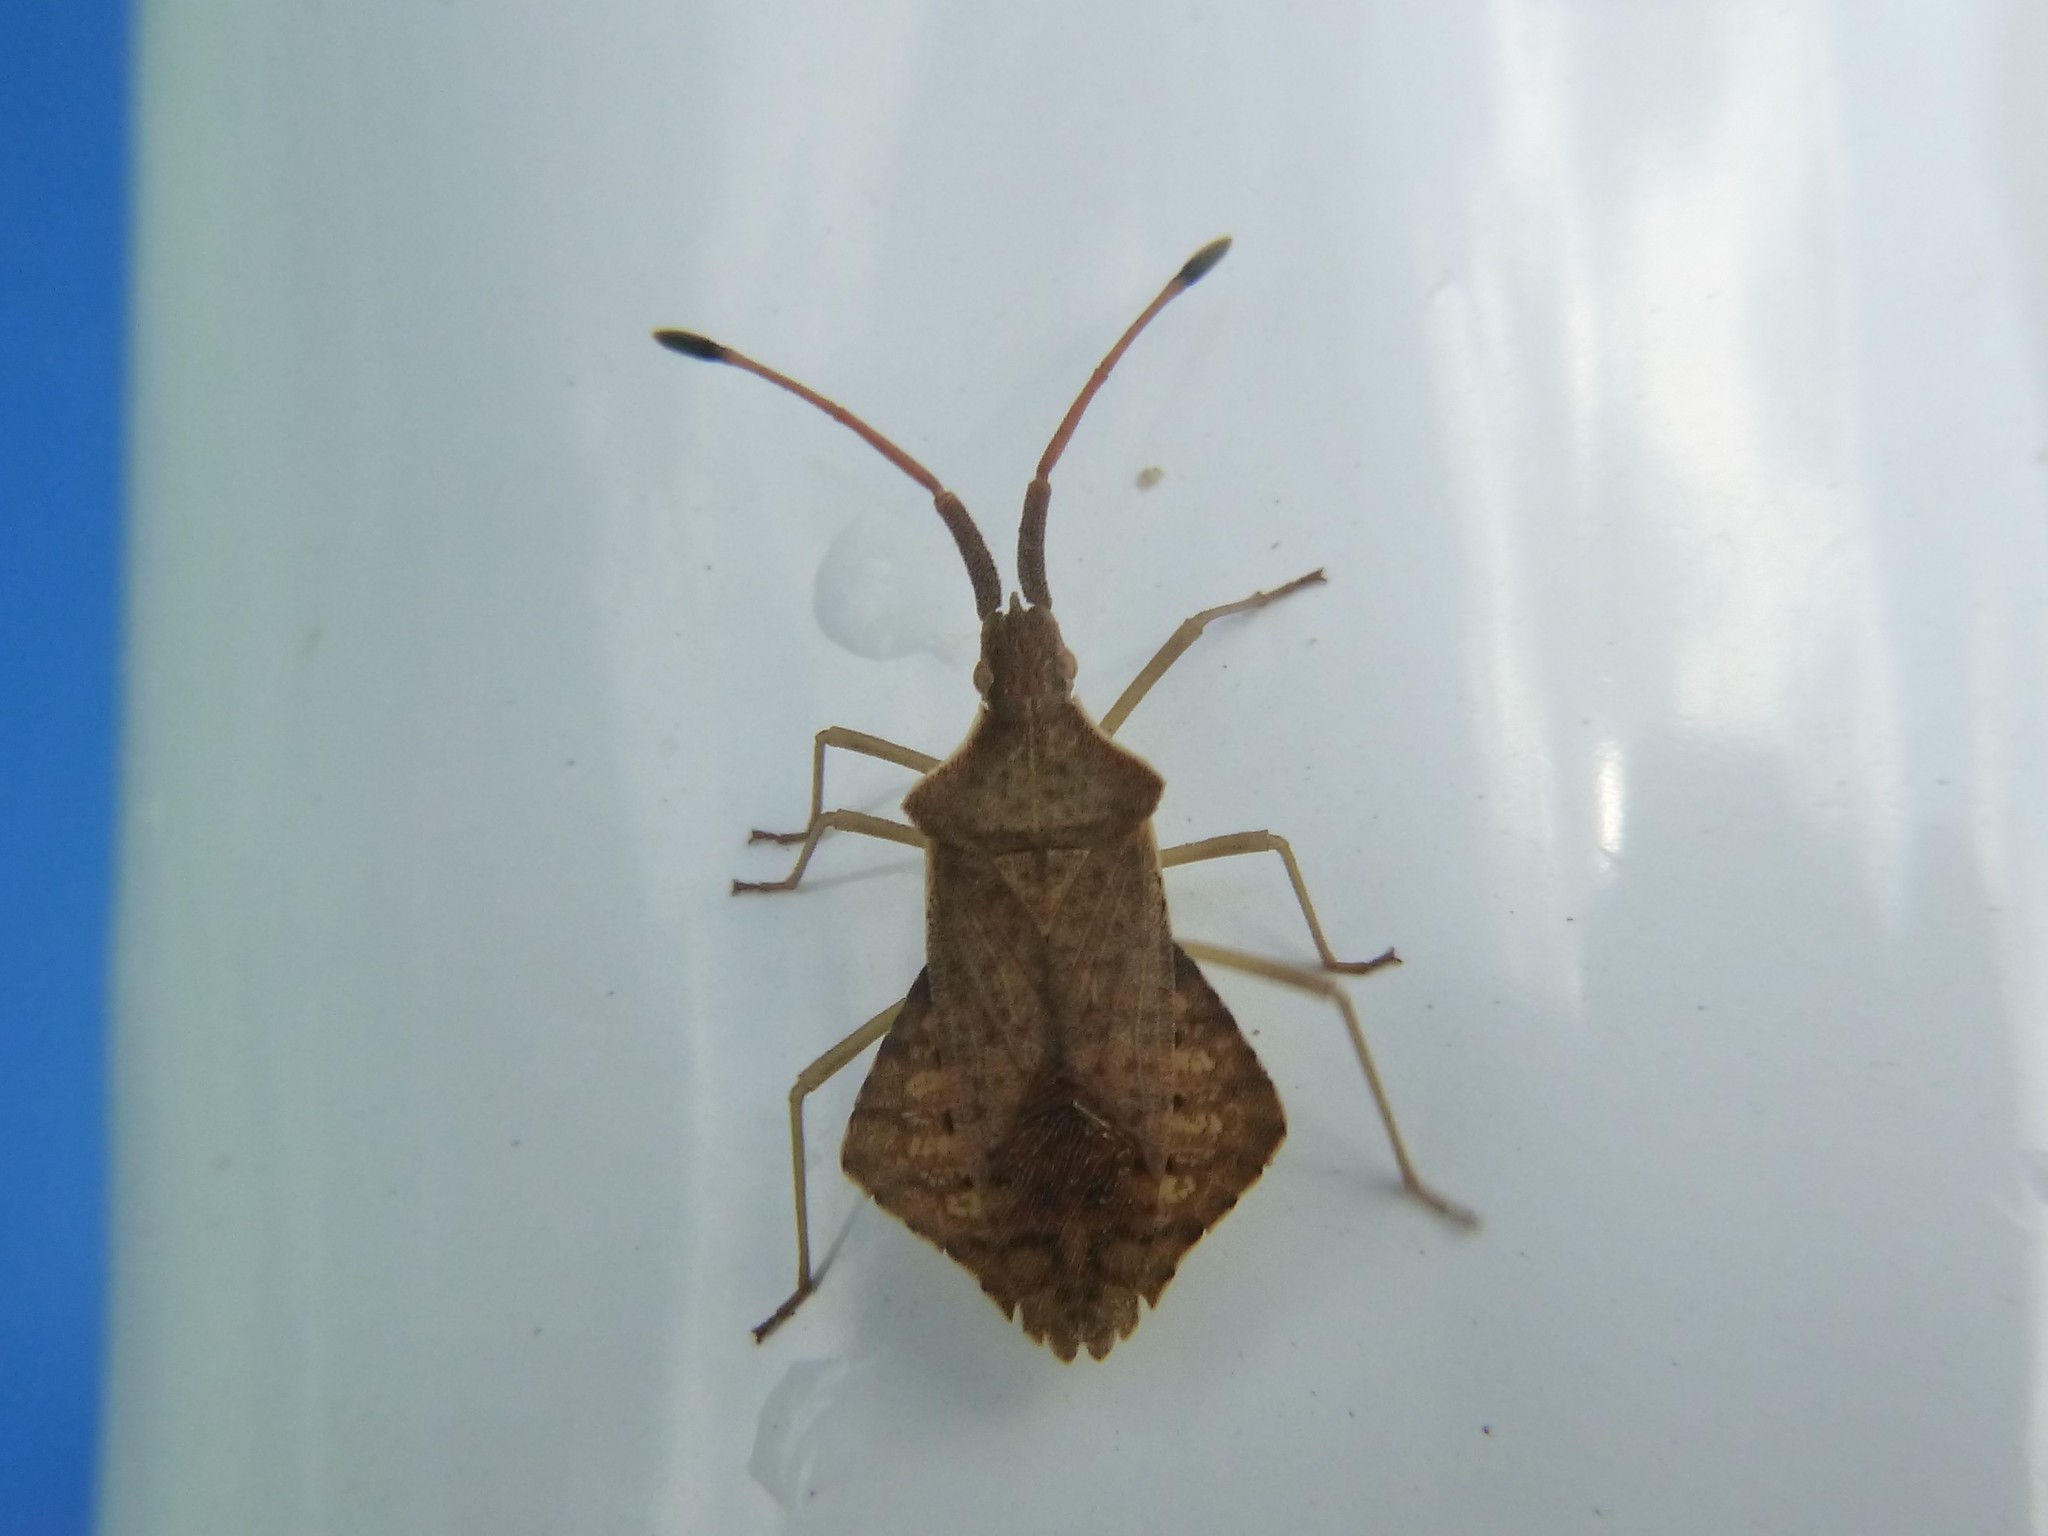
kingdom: Animalia
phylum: Arthropoda
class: Insecta
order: Hemiptera
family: Coreidae
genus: Syromastus
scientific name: Syromastus rhombeus
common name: Rhombic leatherbug
